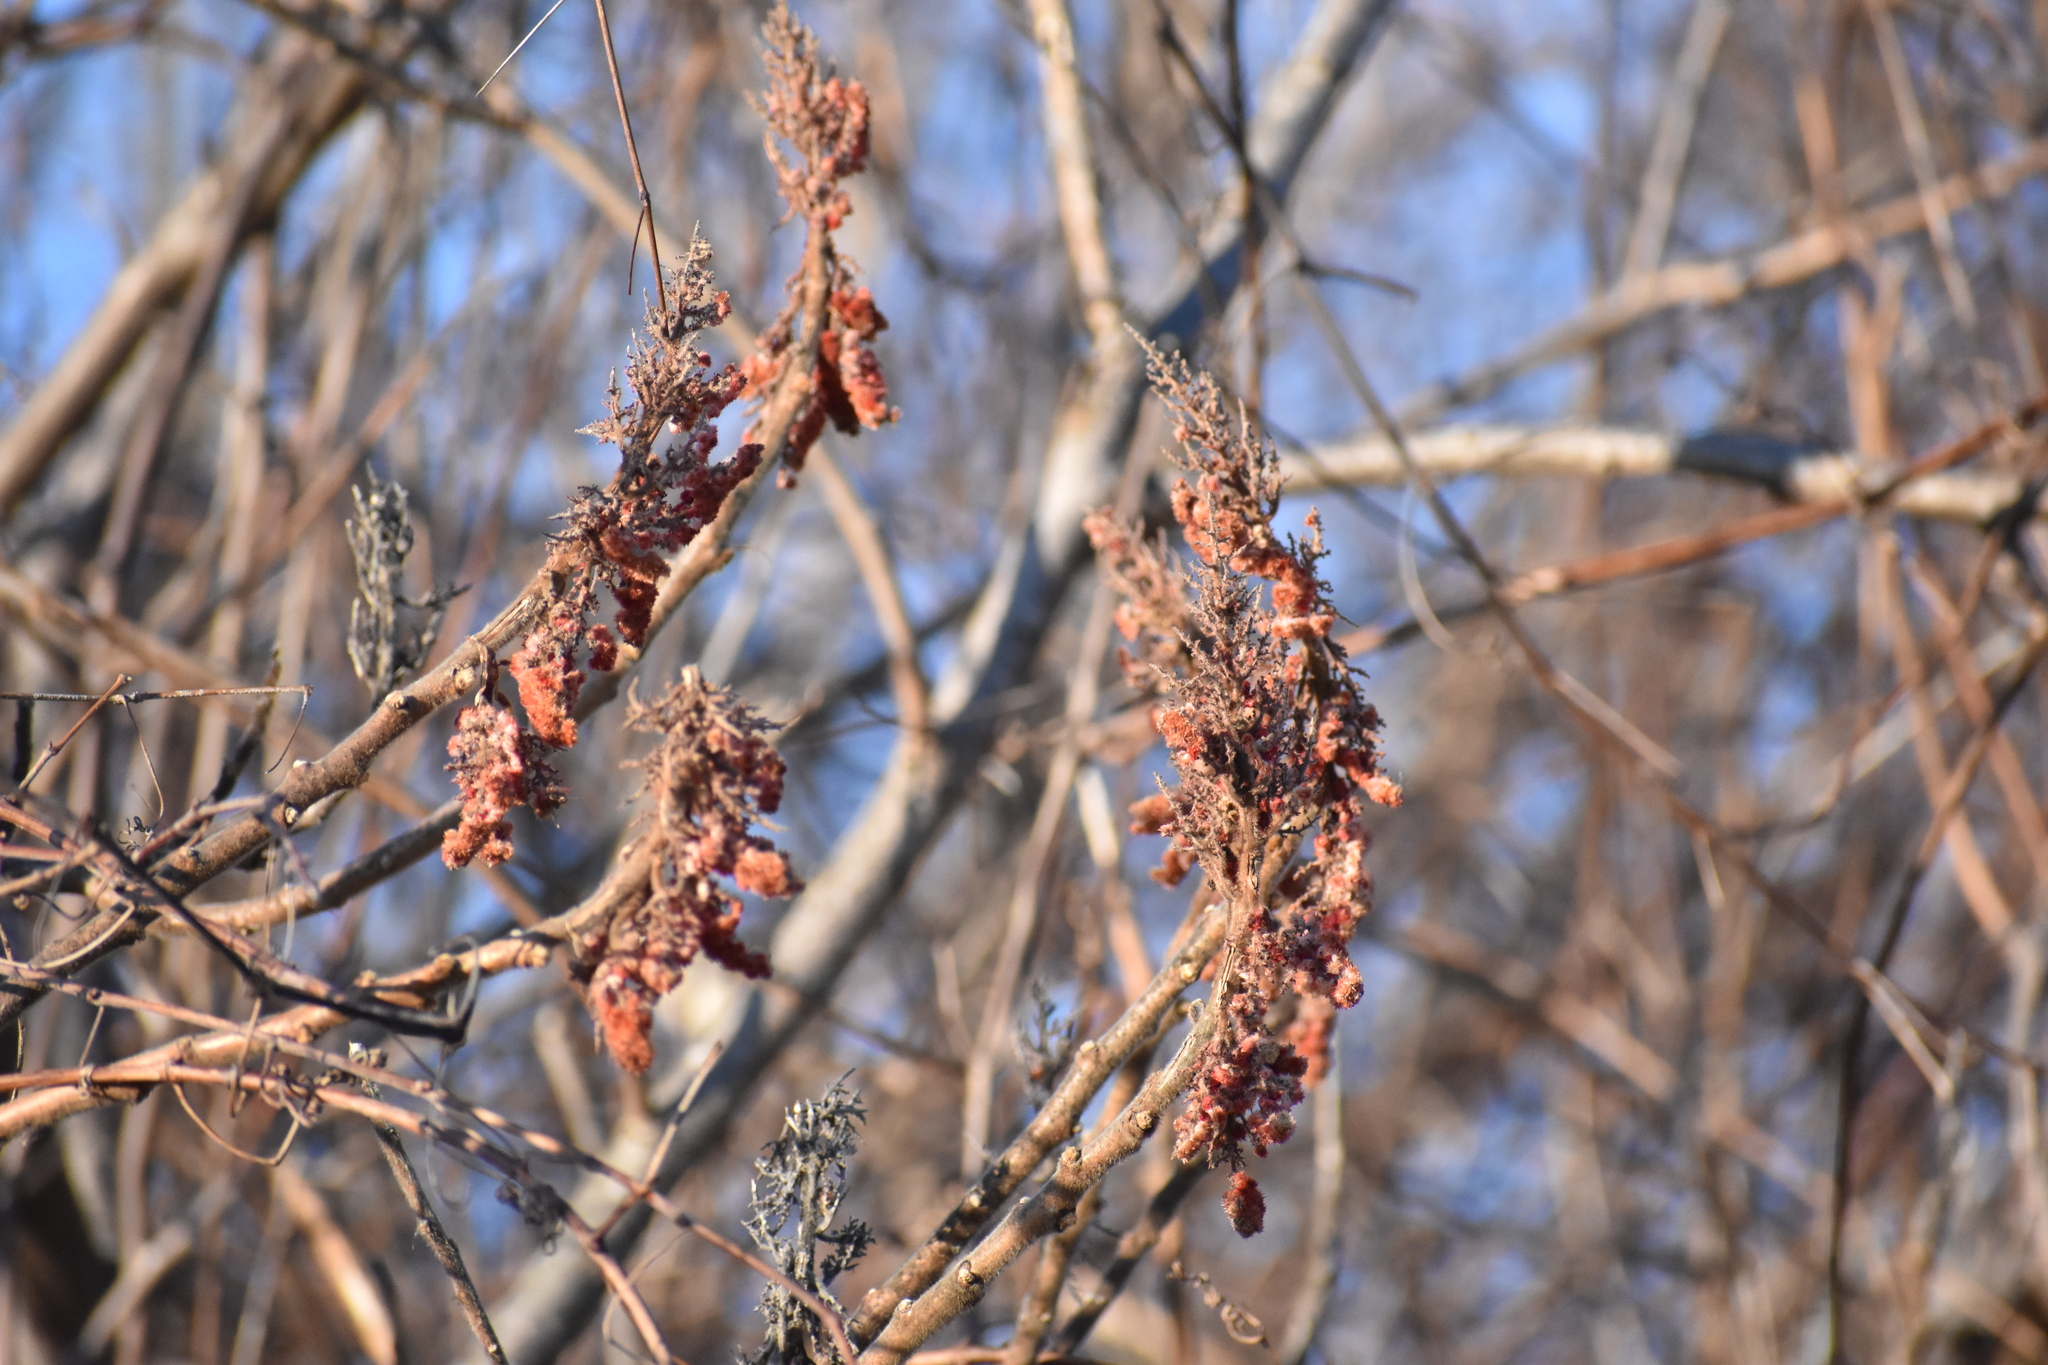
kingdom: Plantae
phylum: Tracheophyta
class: Magnoliopsida
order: Sapindales
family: Anacardiaceae
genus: Rhus
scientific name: Rhus typhina
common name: Staghorn sumac
